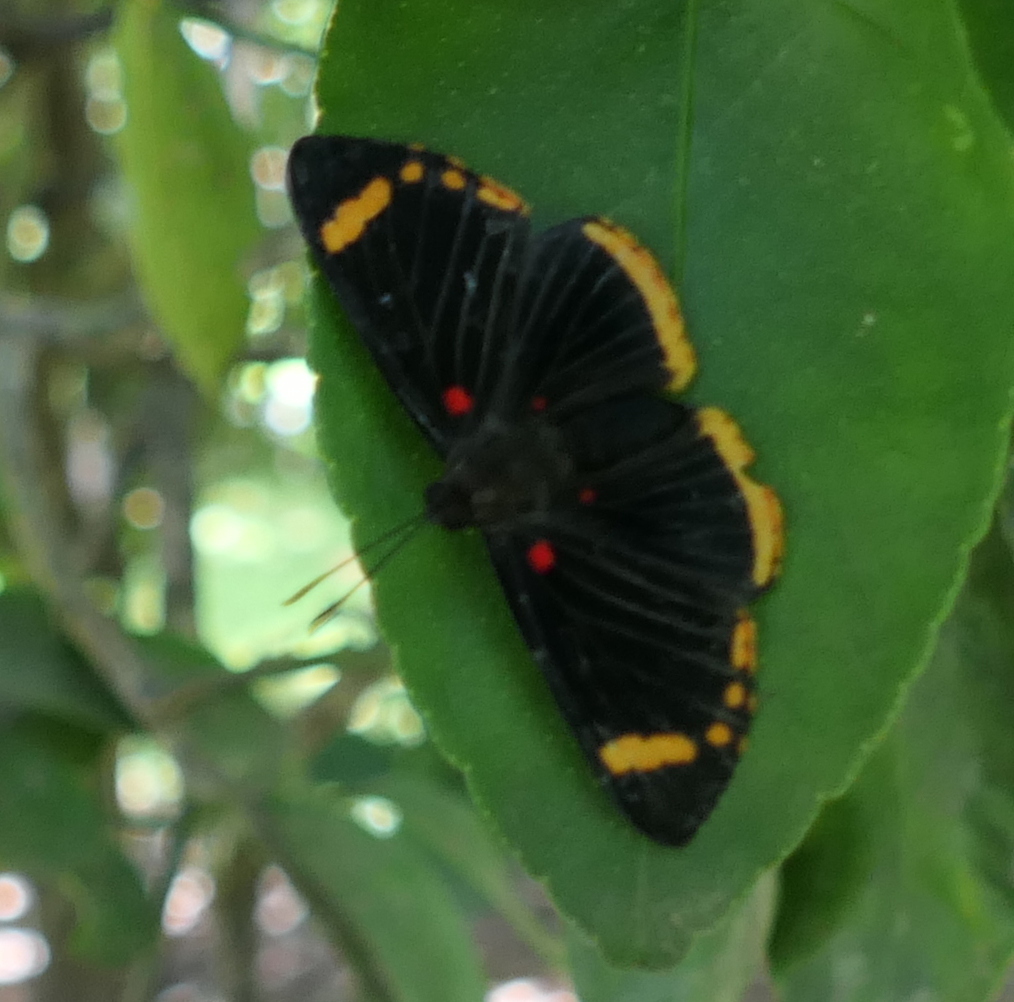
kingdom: Animalia
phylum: Arthropoda
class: Insecta
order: Lepidoptera
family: Lycaenidae
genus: Melanis
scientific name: Melanis xenia
